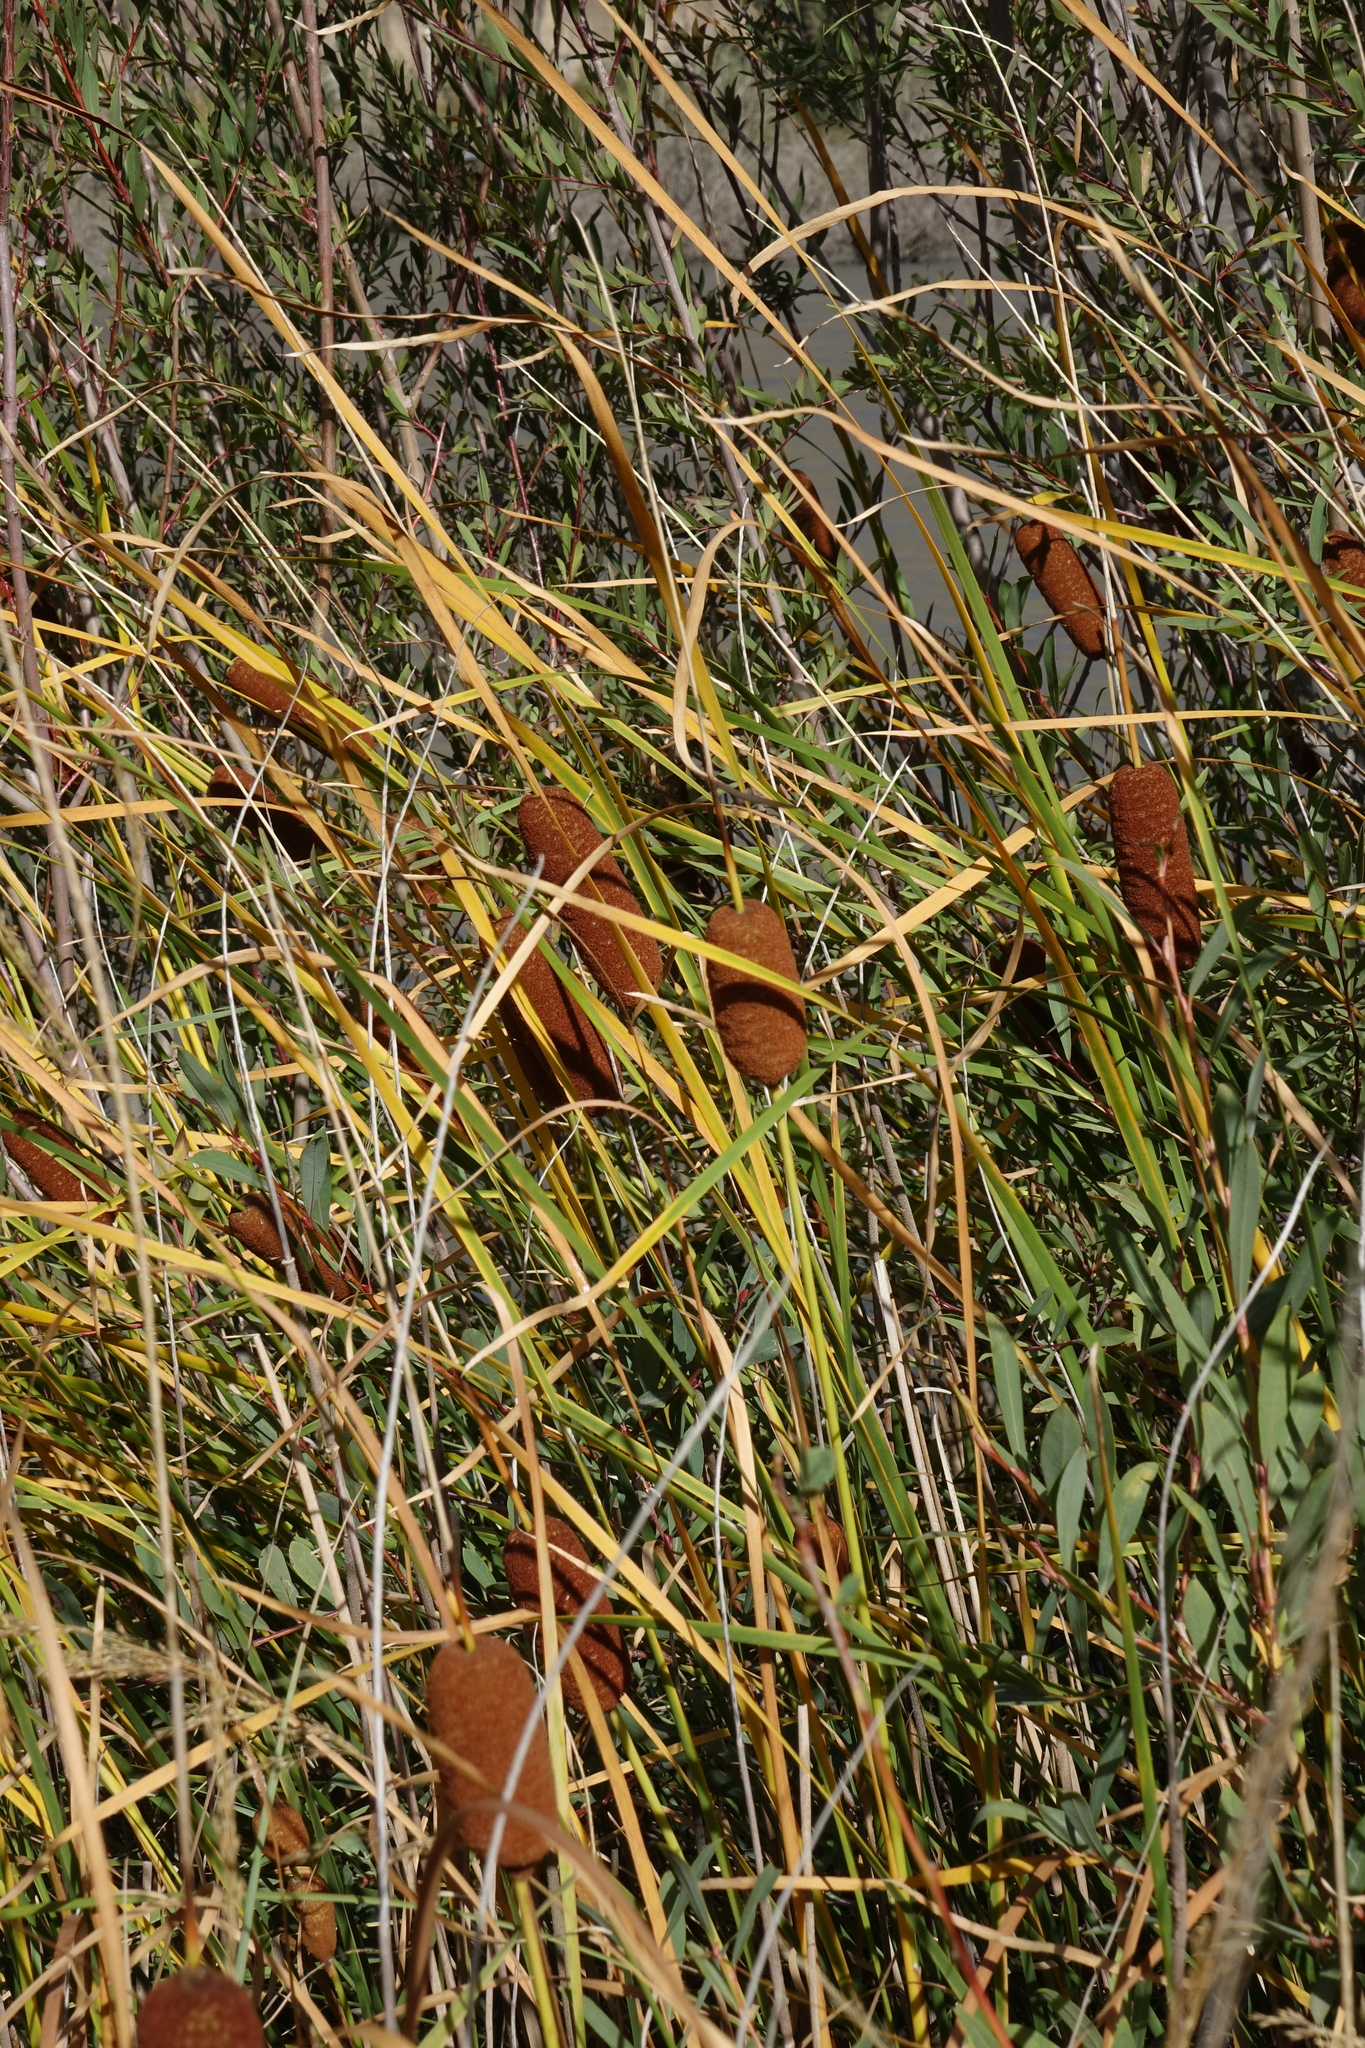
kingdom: Plantae
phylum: Tracheophyta
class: Liliopsida
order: Poales
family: Typhaceae
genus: Typha
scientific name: Typha laxmannii
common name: Laxman’s bulrush
